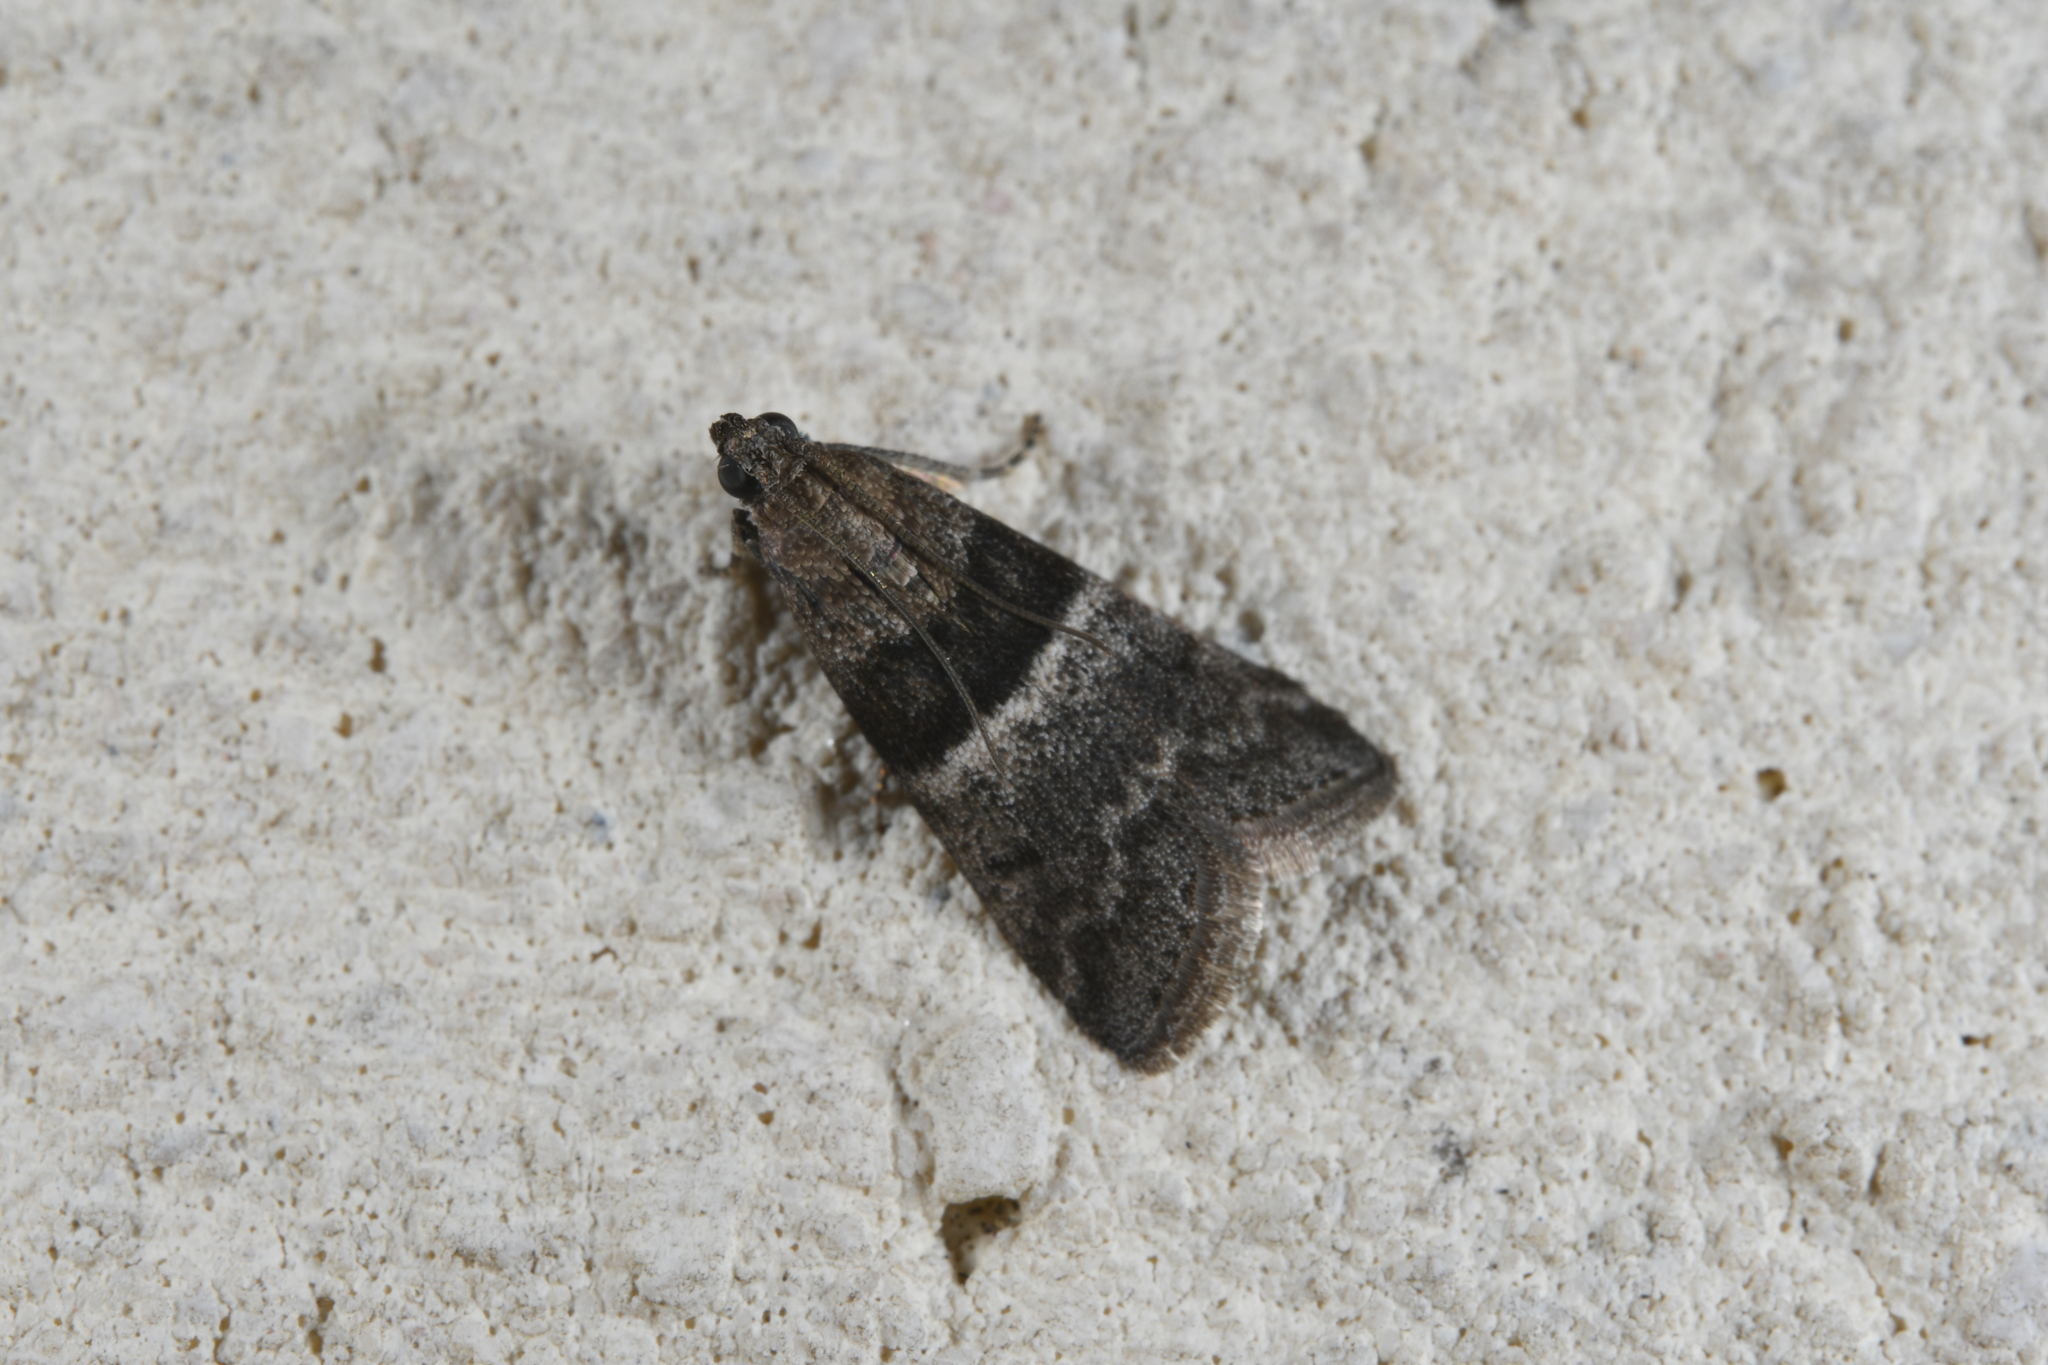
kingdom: Animalia
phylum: Arthropoda
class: Insecta
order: Lepidoptera
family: Pyralidae
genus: Elegia
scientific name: Elegia similella
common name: White-barred knot-horn
